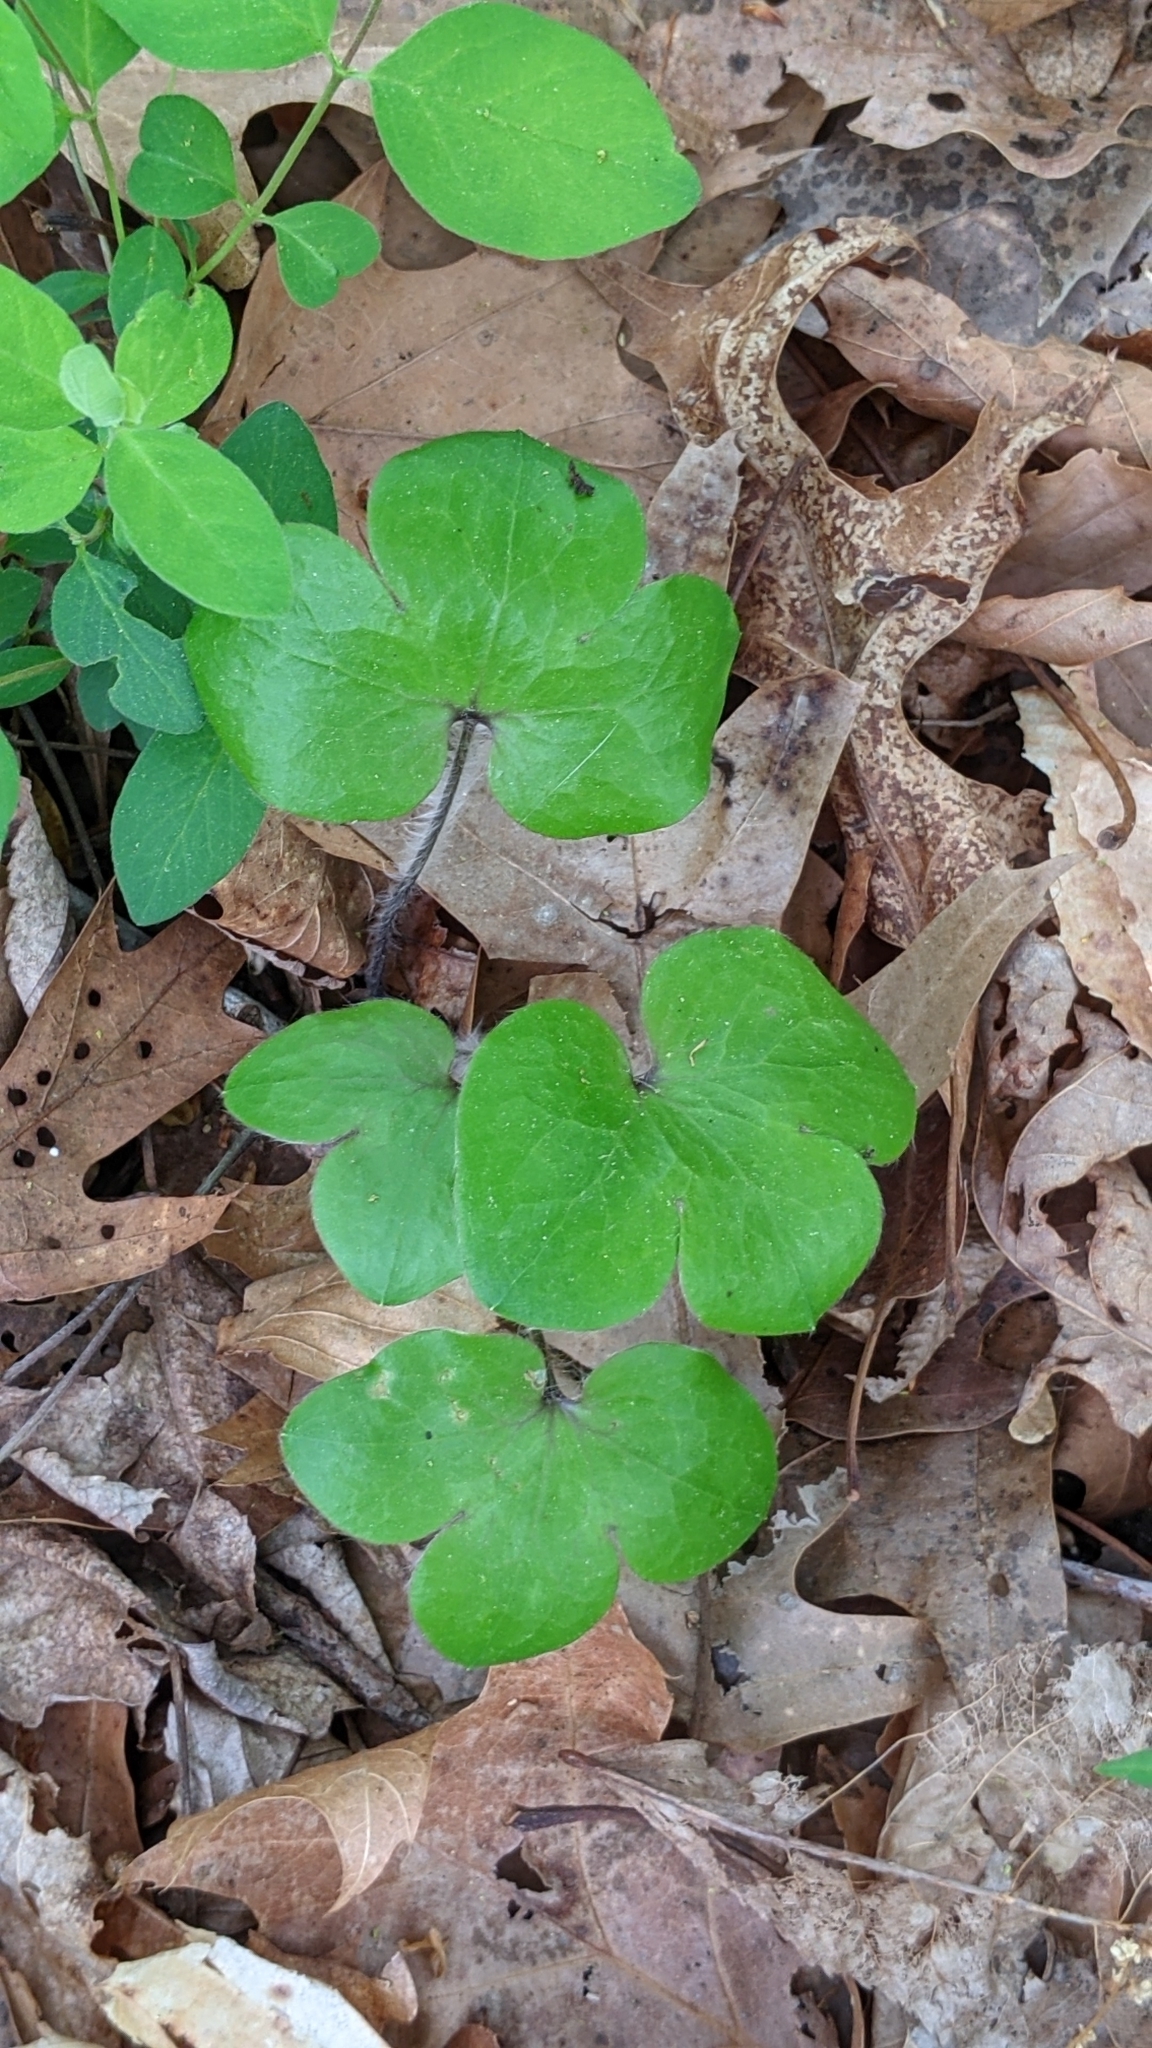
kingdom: Plantae
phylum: Tracheophyta
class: Magnoliopsida
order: Ranunculales
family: Ranunculaceae
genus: Hepatica
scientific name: Hepatica americana
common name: American hepatica
